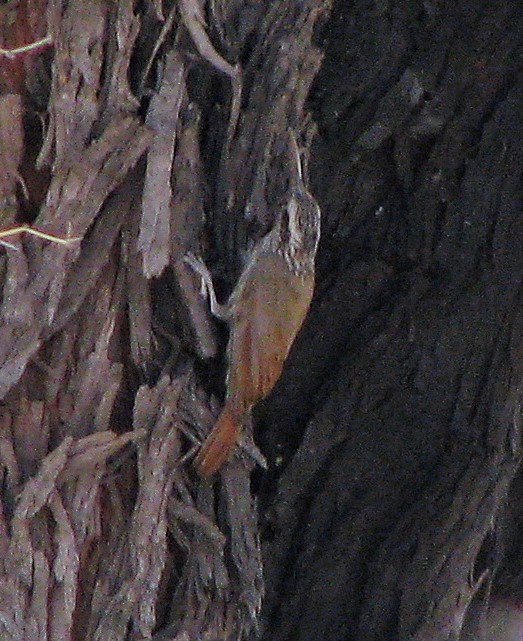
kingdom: Animalia
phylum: Chordata
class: Aves
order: Passeriformes
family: Furnariidae
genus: Lepidocolaptes
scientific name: Lepidocolaptes angustirostris
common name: Narrow-billed woodcreeper
